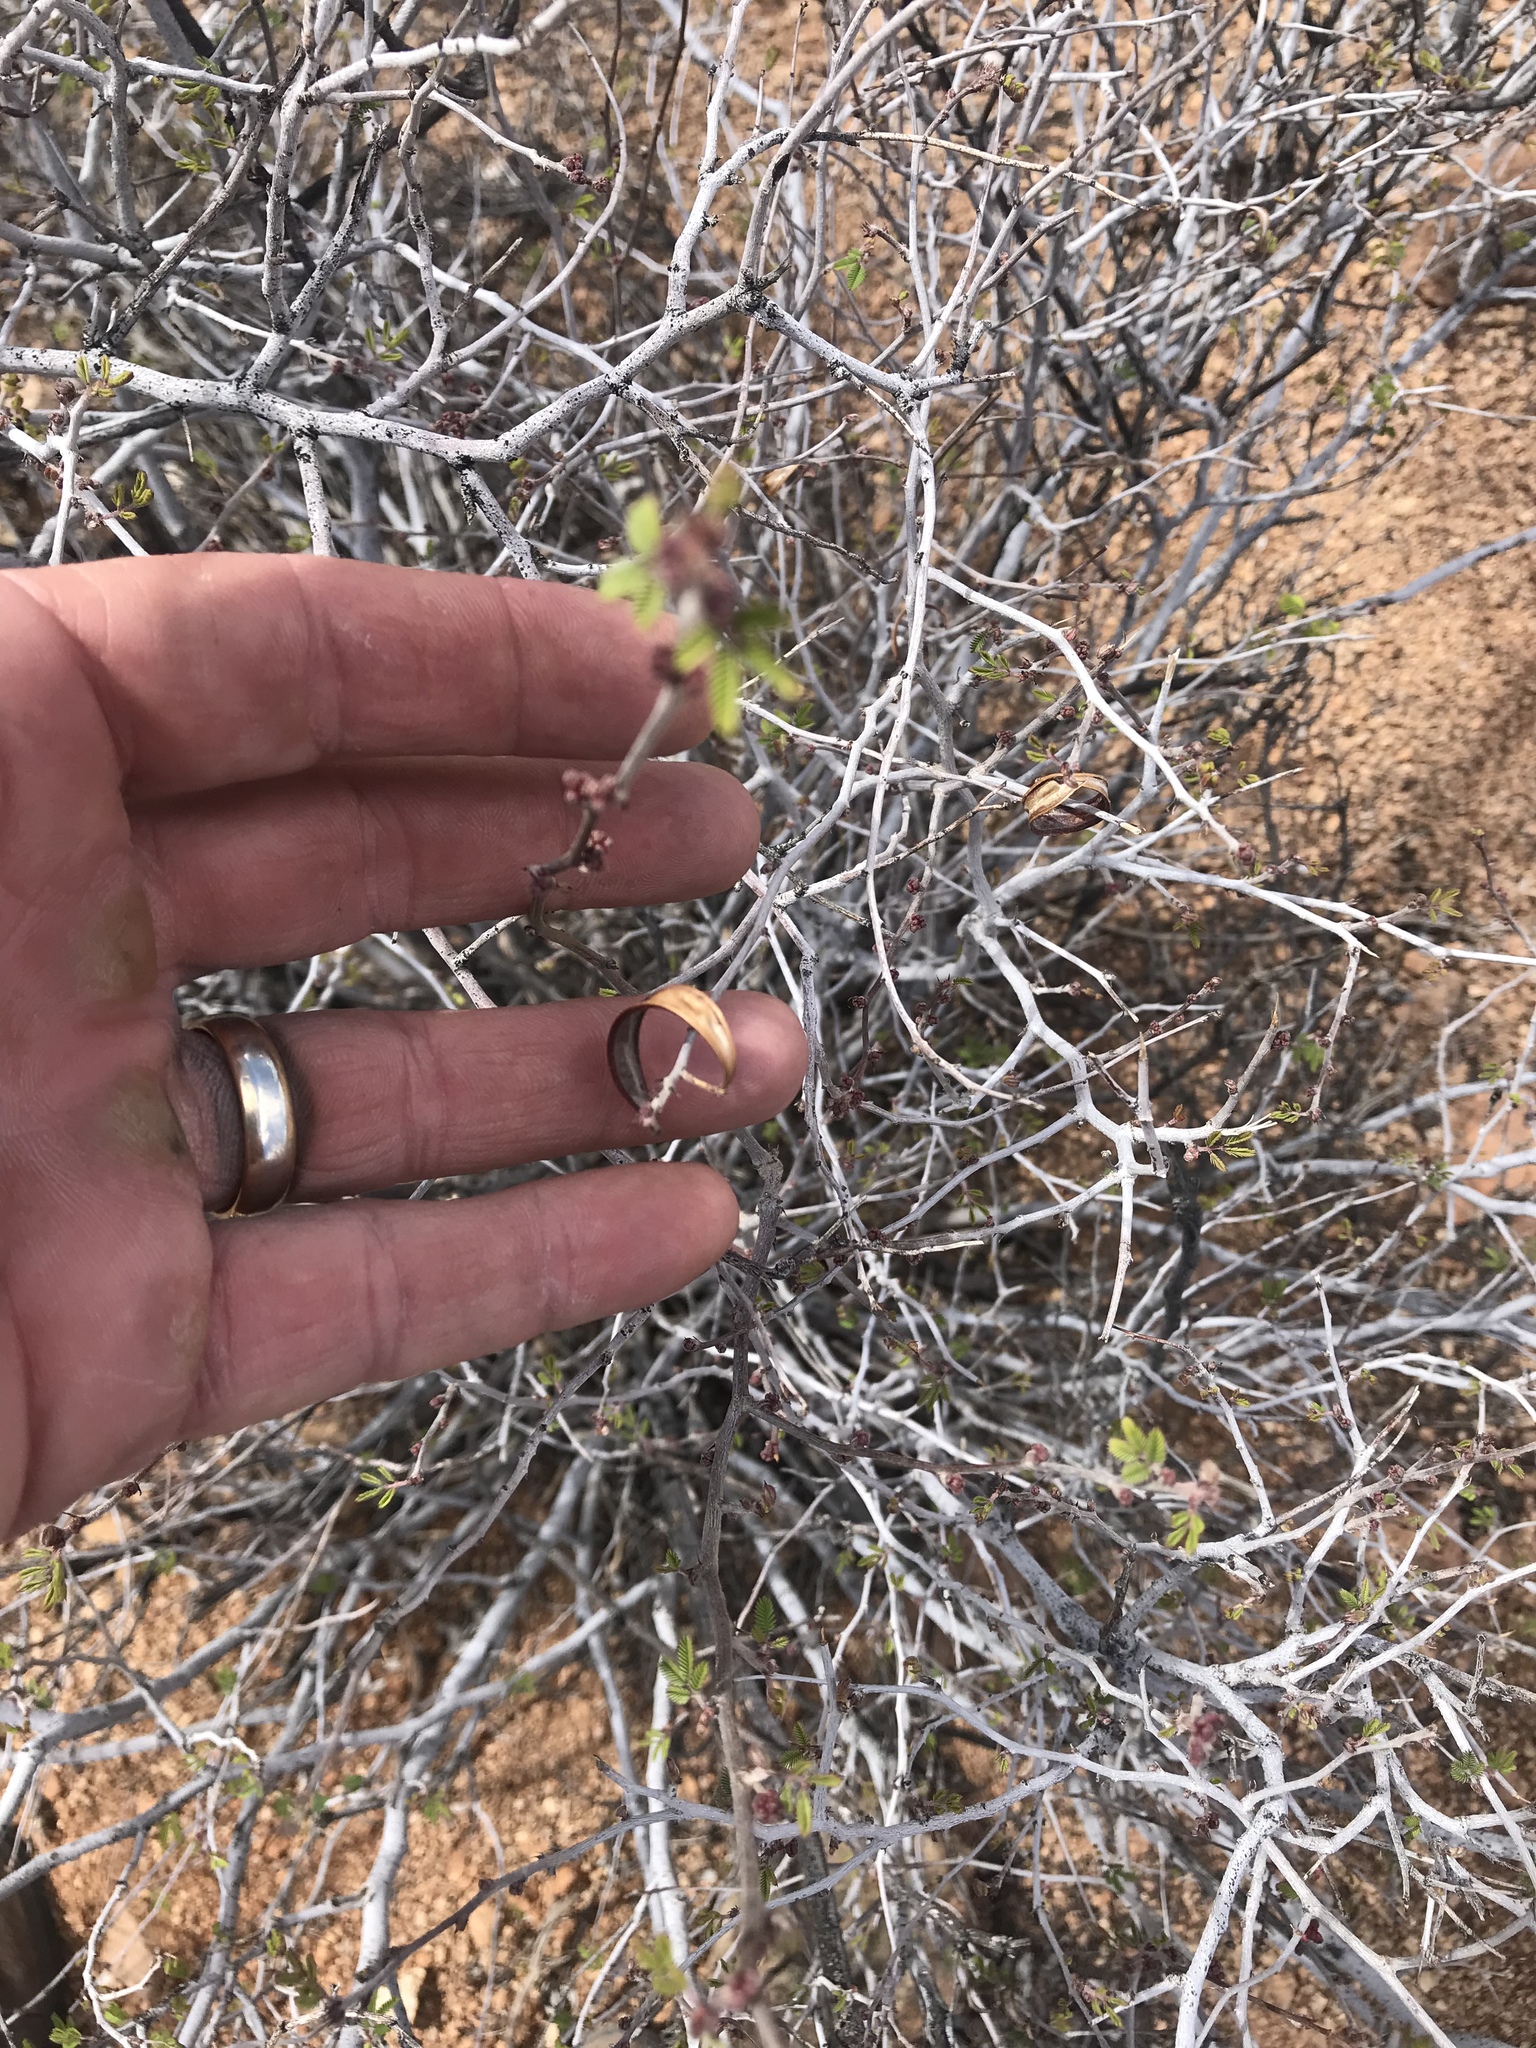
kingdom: Plantae
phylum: Tracheophyta
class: Magnoliopsida
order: Fabales
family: Fabaceae
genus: Calliandra
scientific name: Calliandra eriophylla
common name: Fairy-duster
